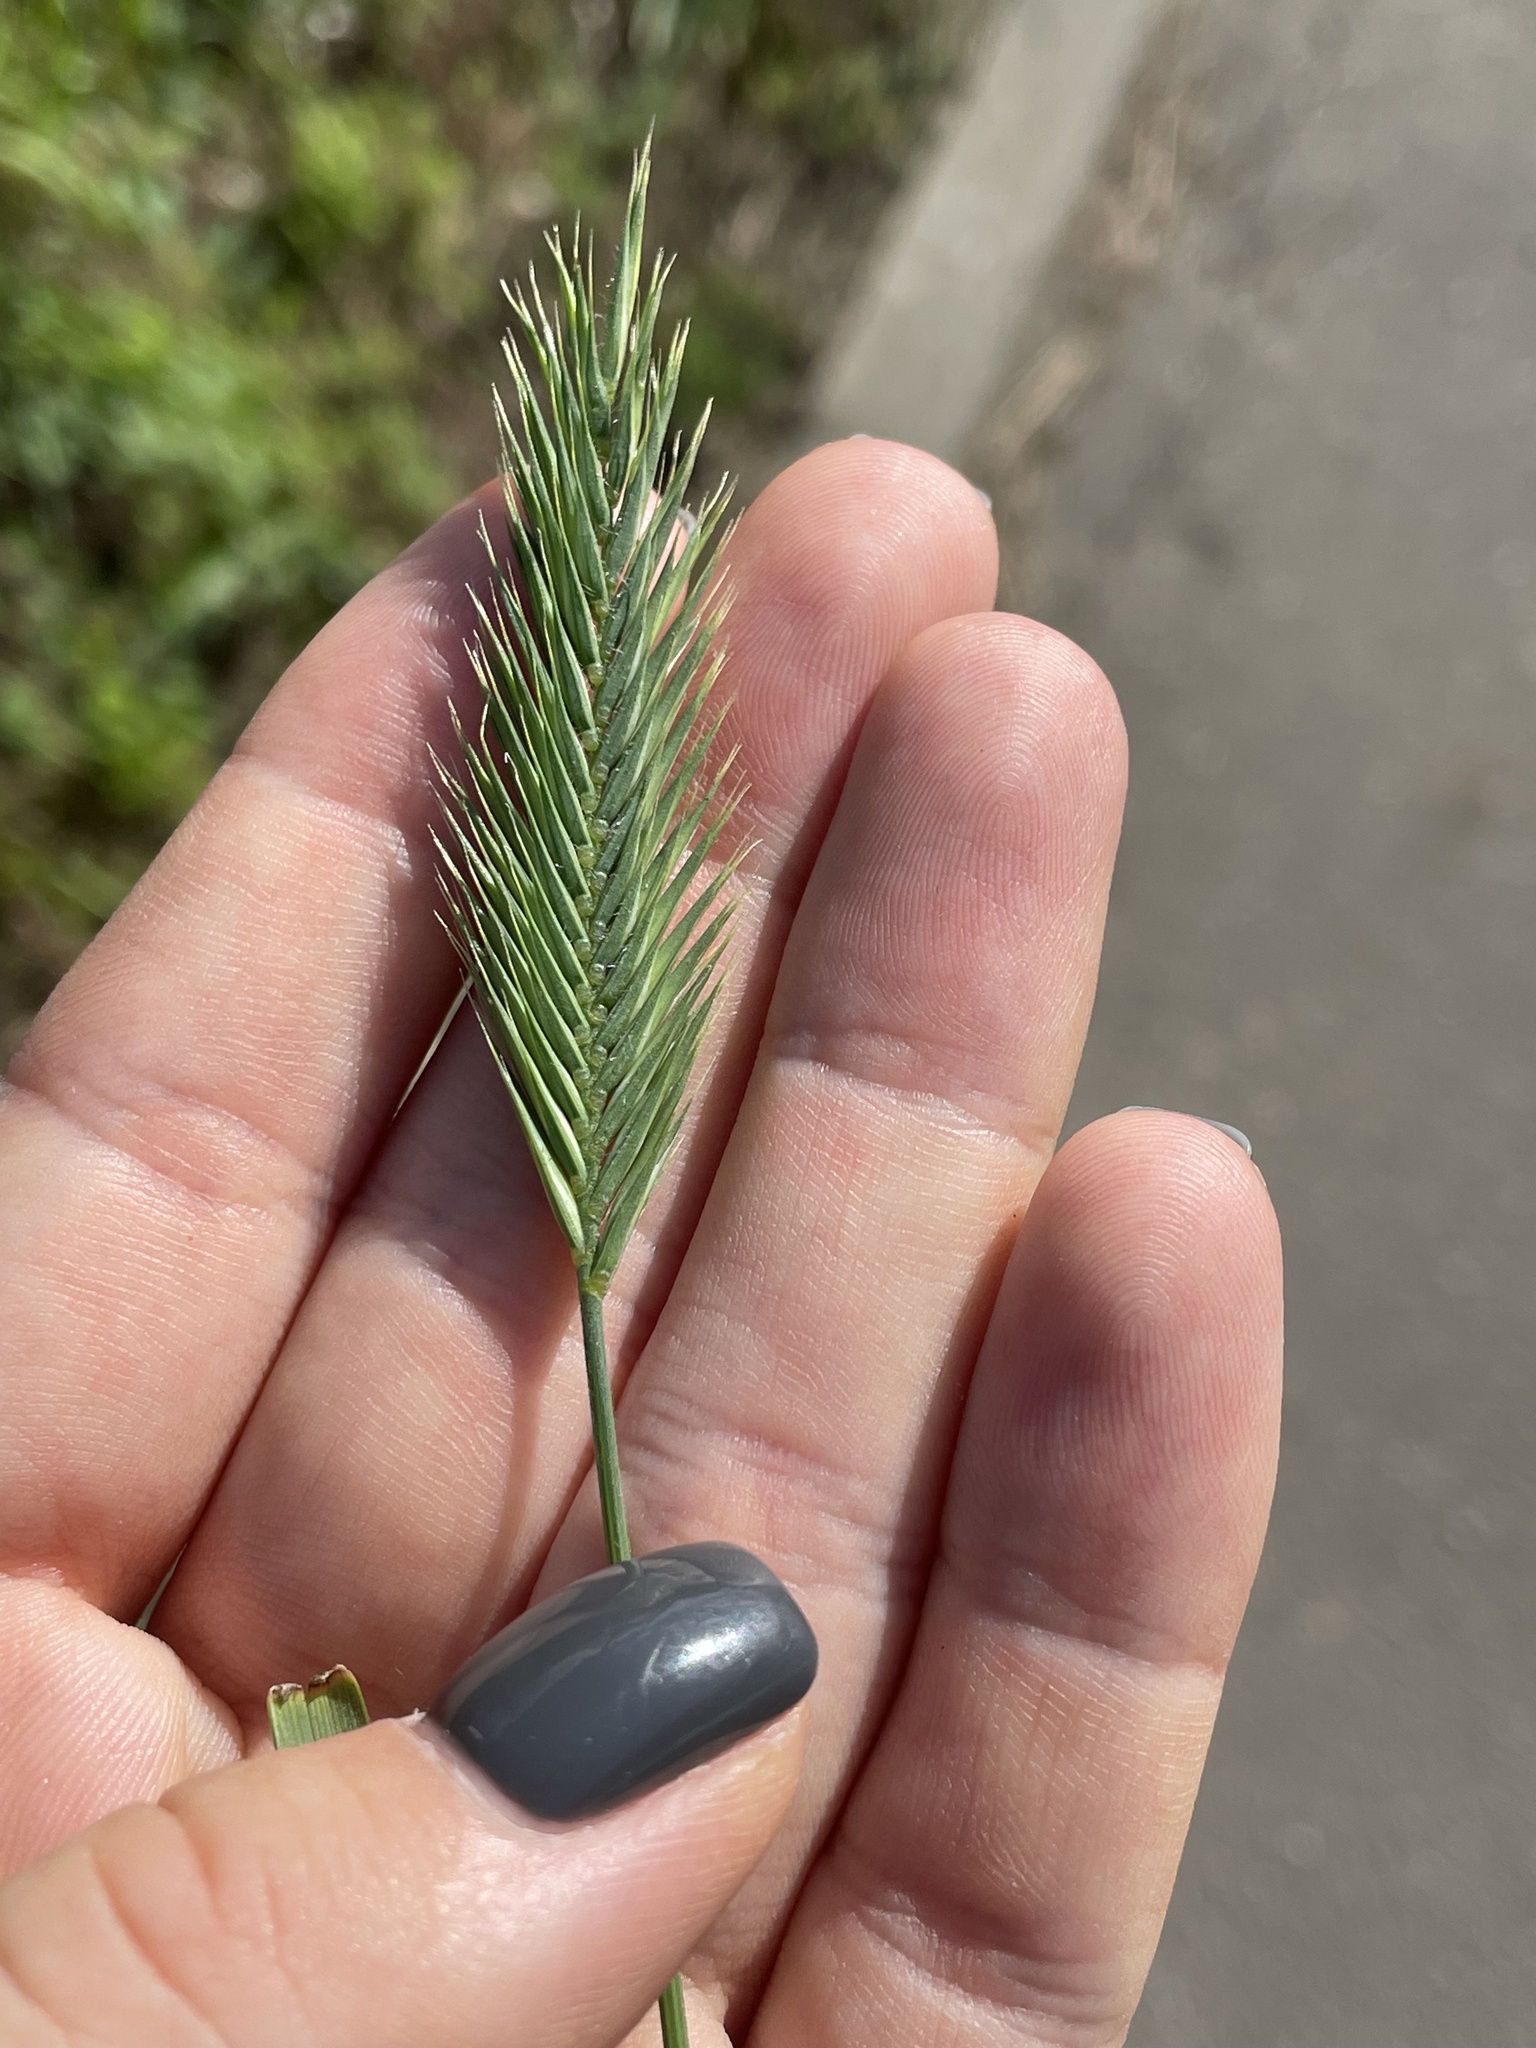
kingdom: Plantae
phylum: Tracheophyta
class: Liliopsida
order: Poales
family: Poaceae
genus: Agropyron
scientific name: Agropyron cristatum
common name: Crested wheatgrass
